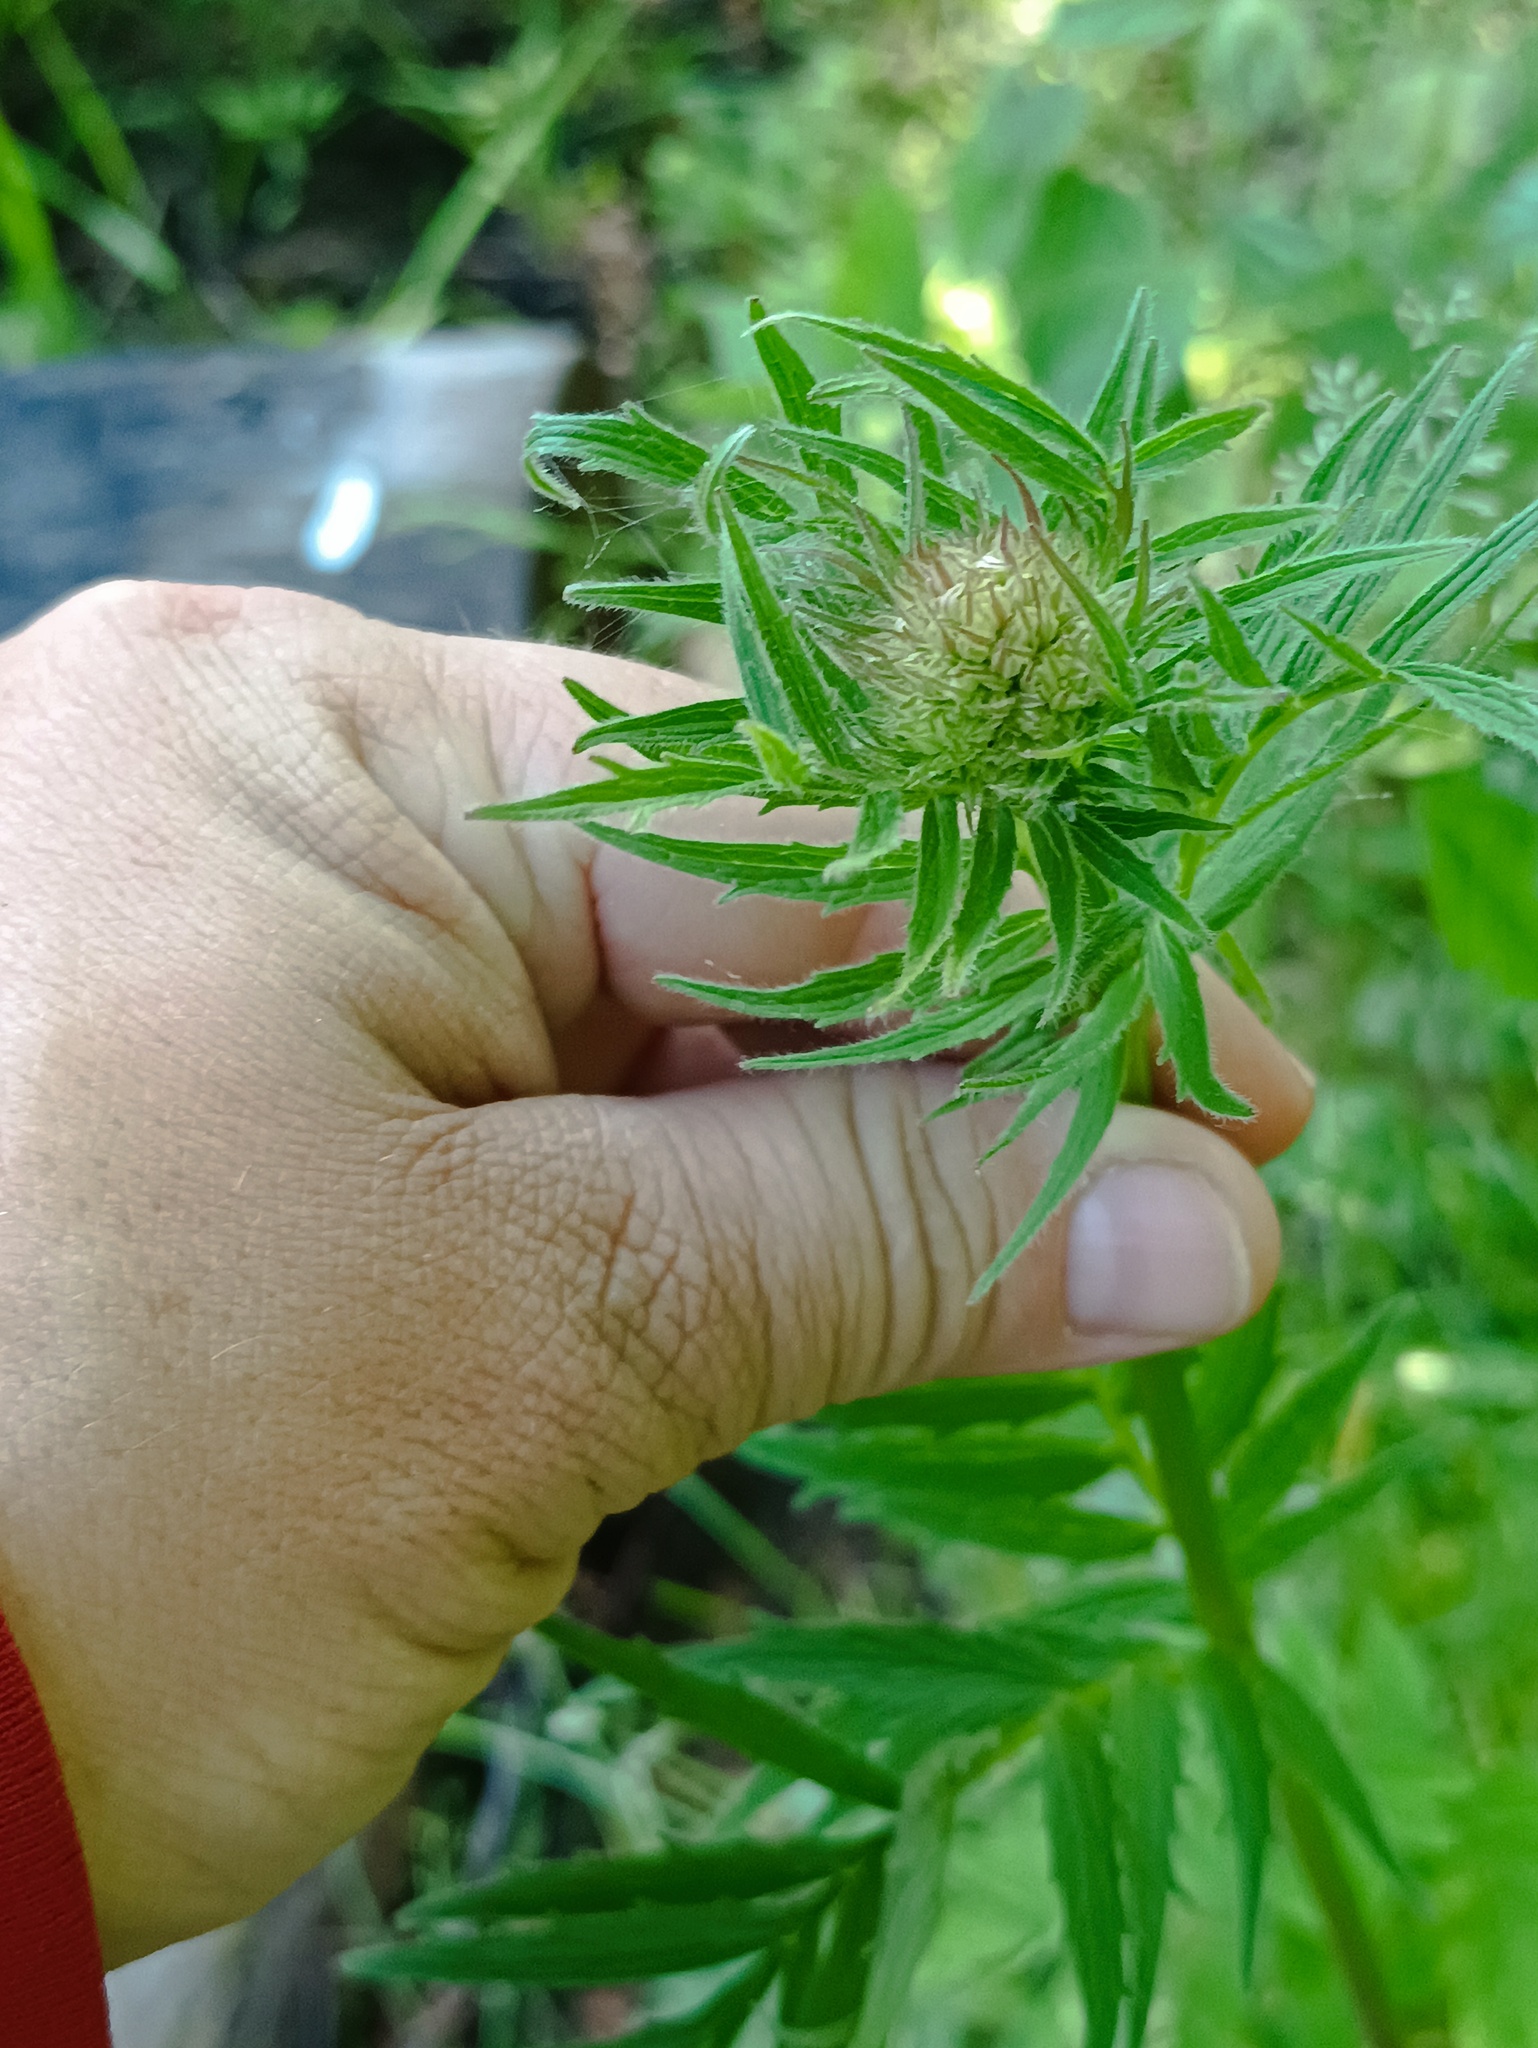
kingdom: Plantae
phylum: Tracheophyta
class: Magnoliopsida
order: Dipsacales
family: Caprifoliaceae
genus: Valeriana
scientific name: Valeriana officinalis
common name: Common valerian
